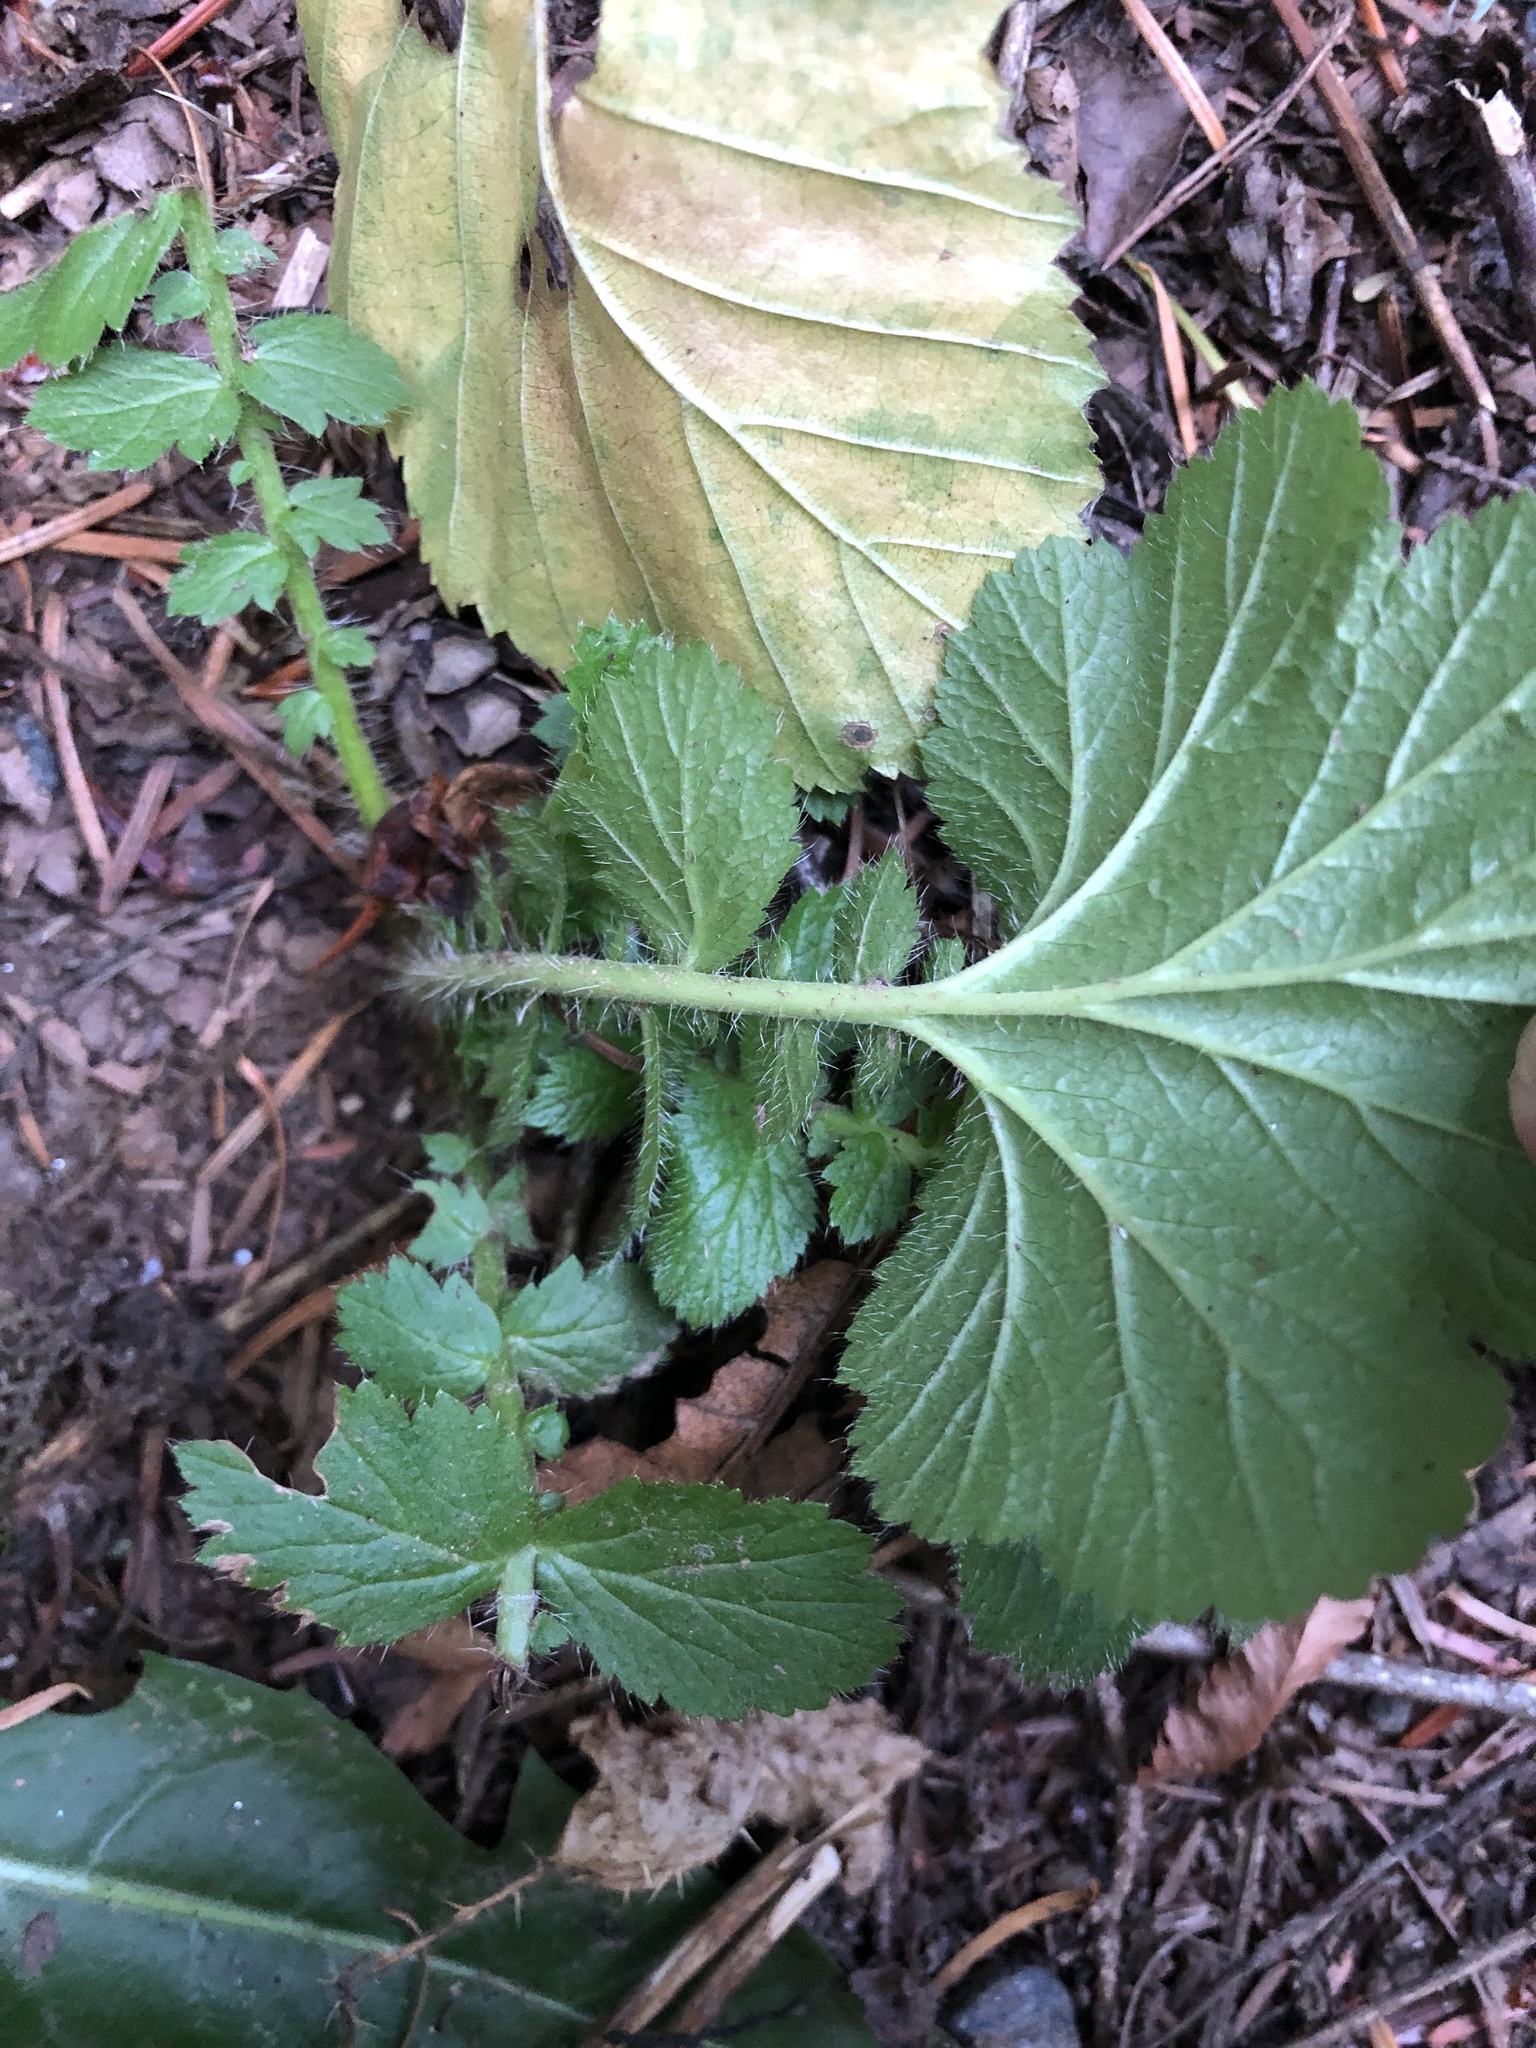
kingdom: Plantae
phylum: Tracheophyta
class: Magnoliopsida
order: Rosales
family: Rosaceae
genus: Geum
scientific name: Geum macrophyllum
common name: Large-leaved avens
